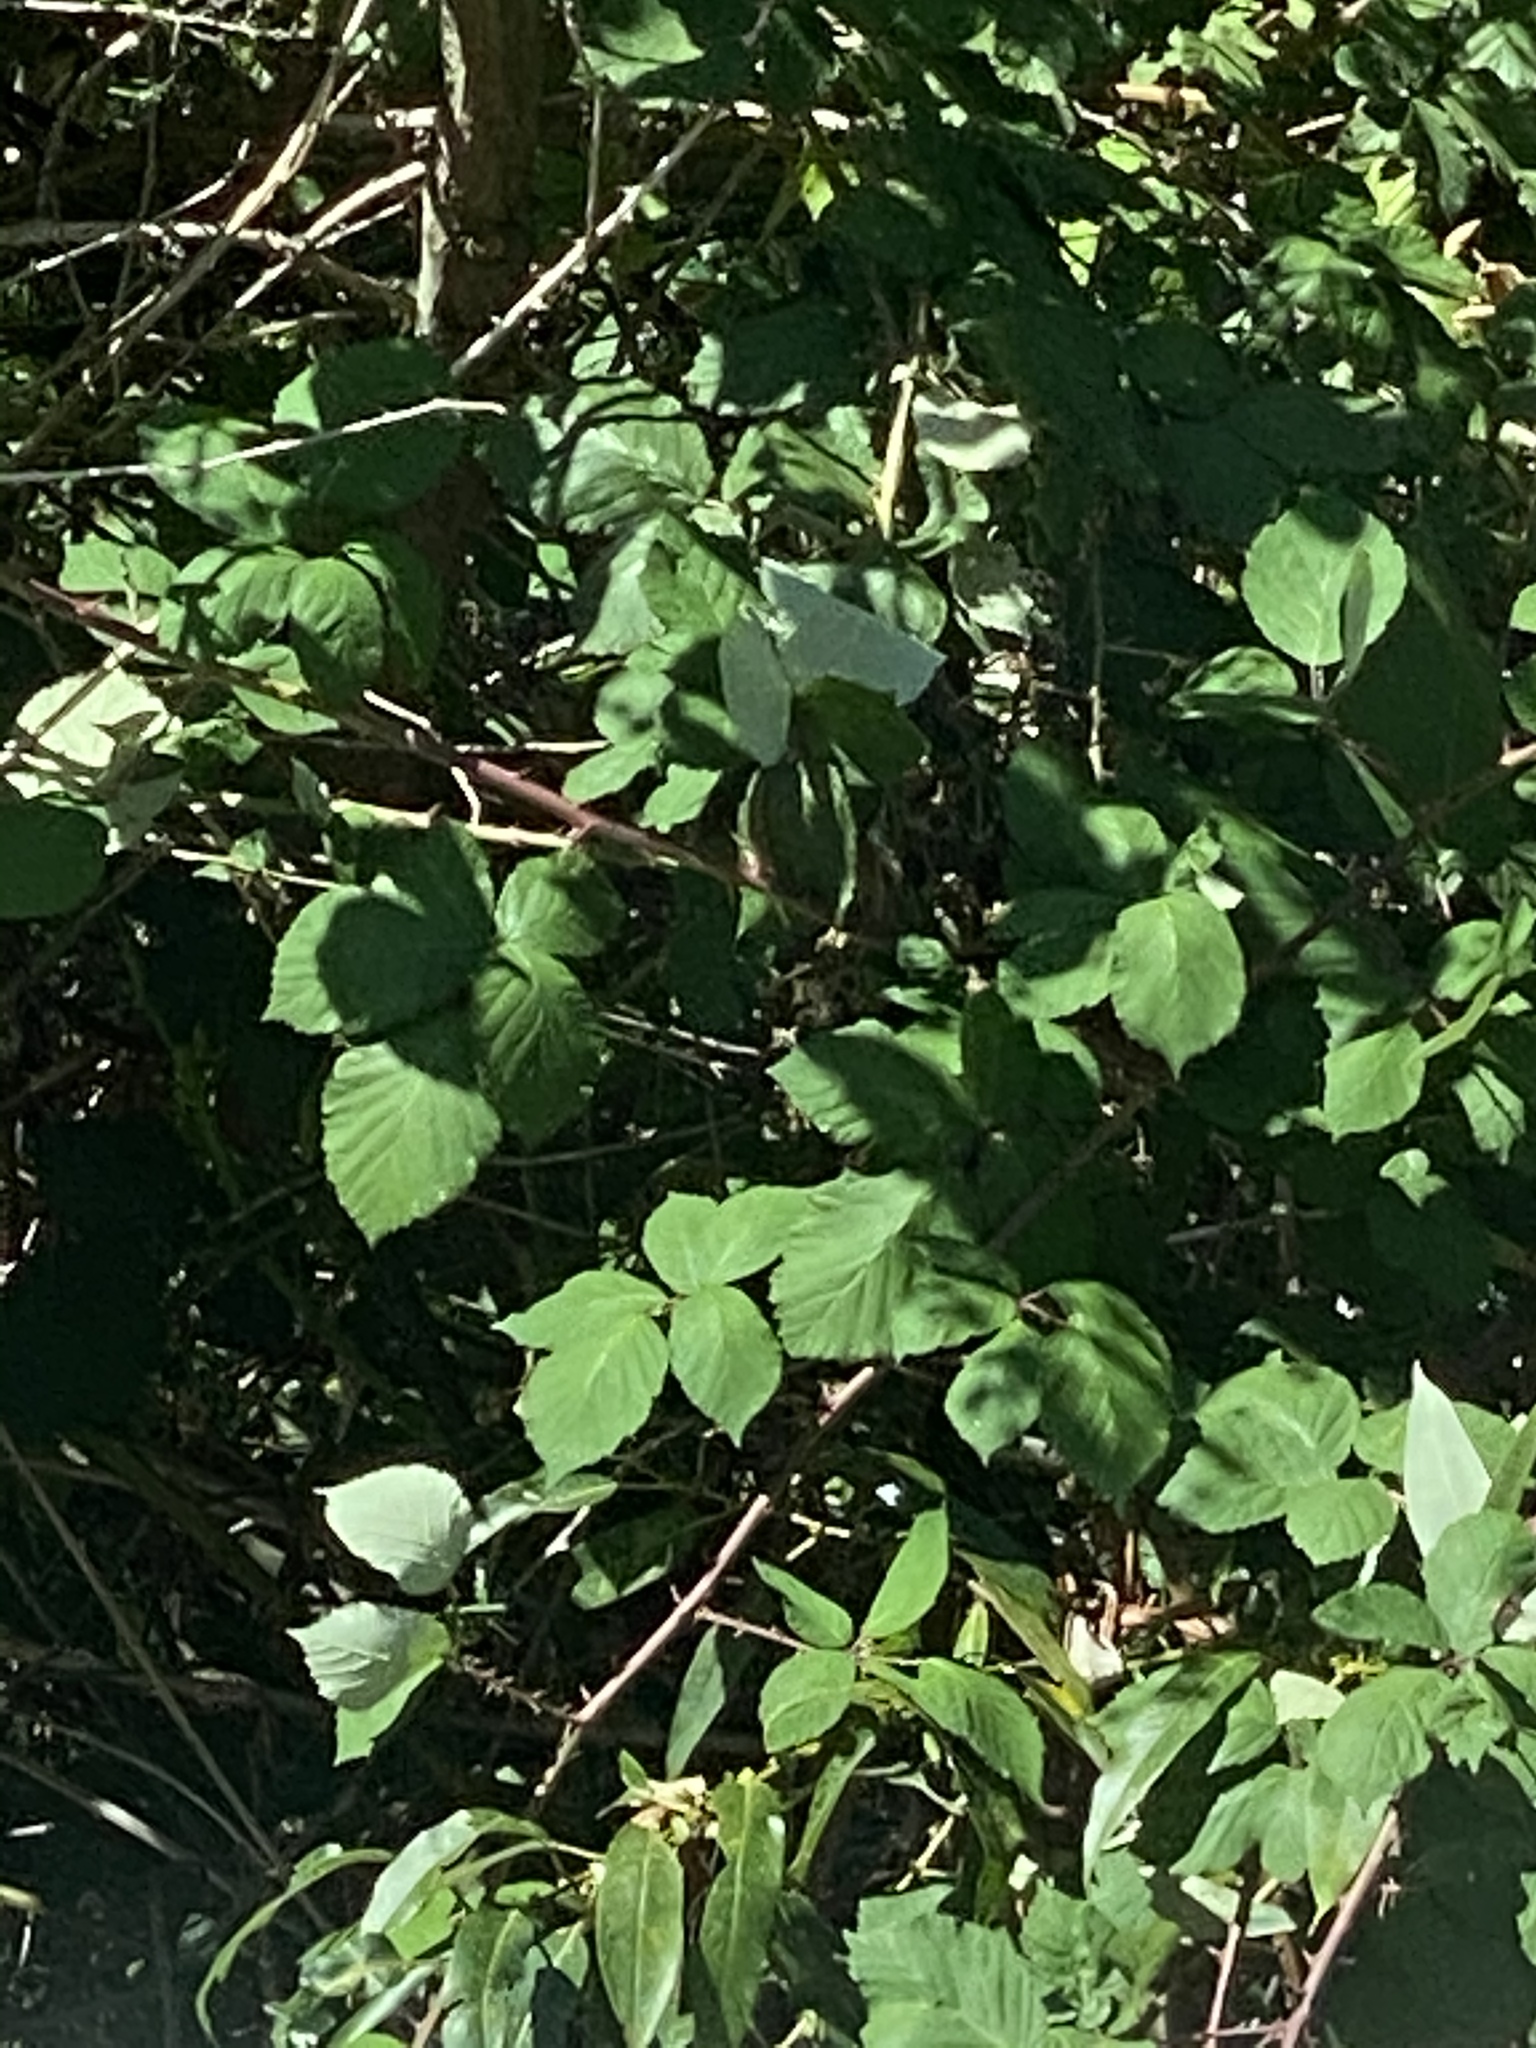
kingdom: Plantae
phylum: Tracheophyta
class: Magnoliopsida
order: Rosales
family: Rosaceae
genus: Rubus
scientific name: Rubus bifrons
